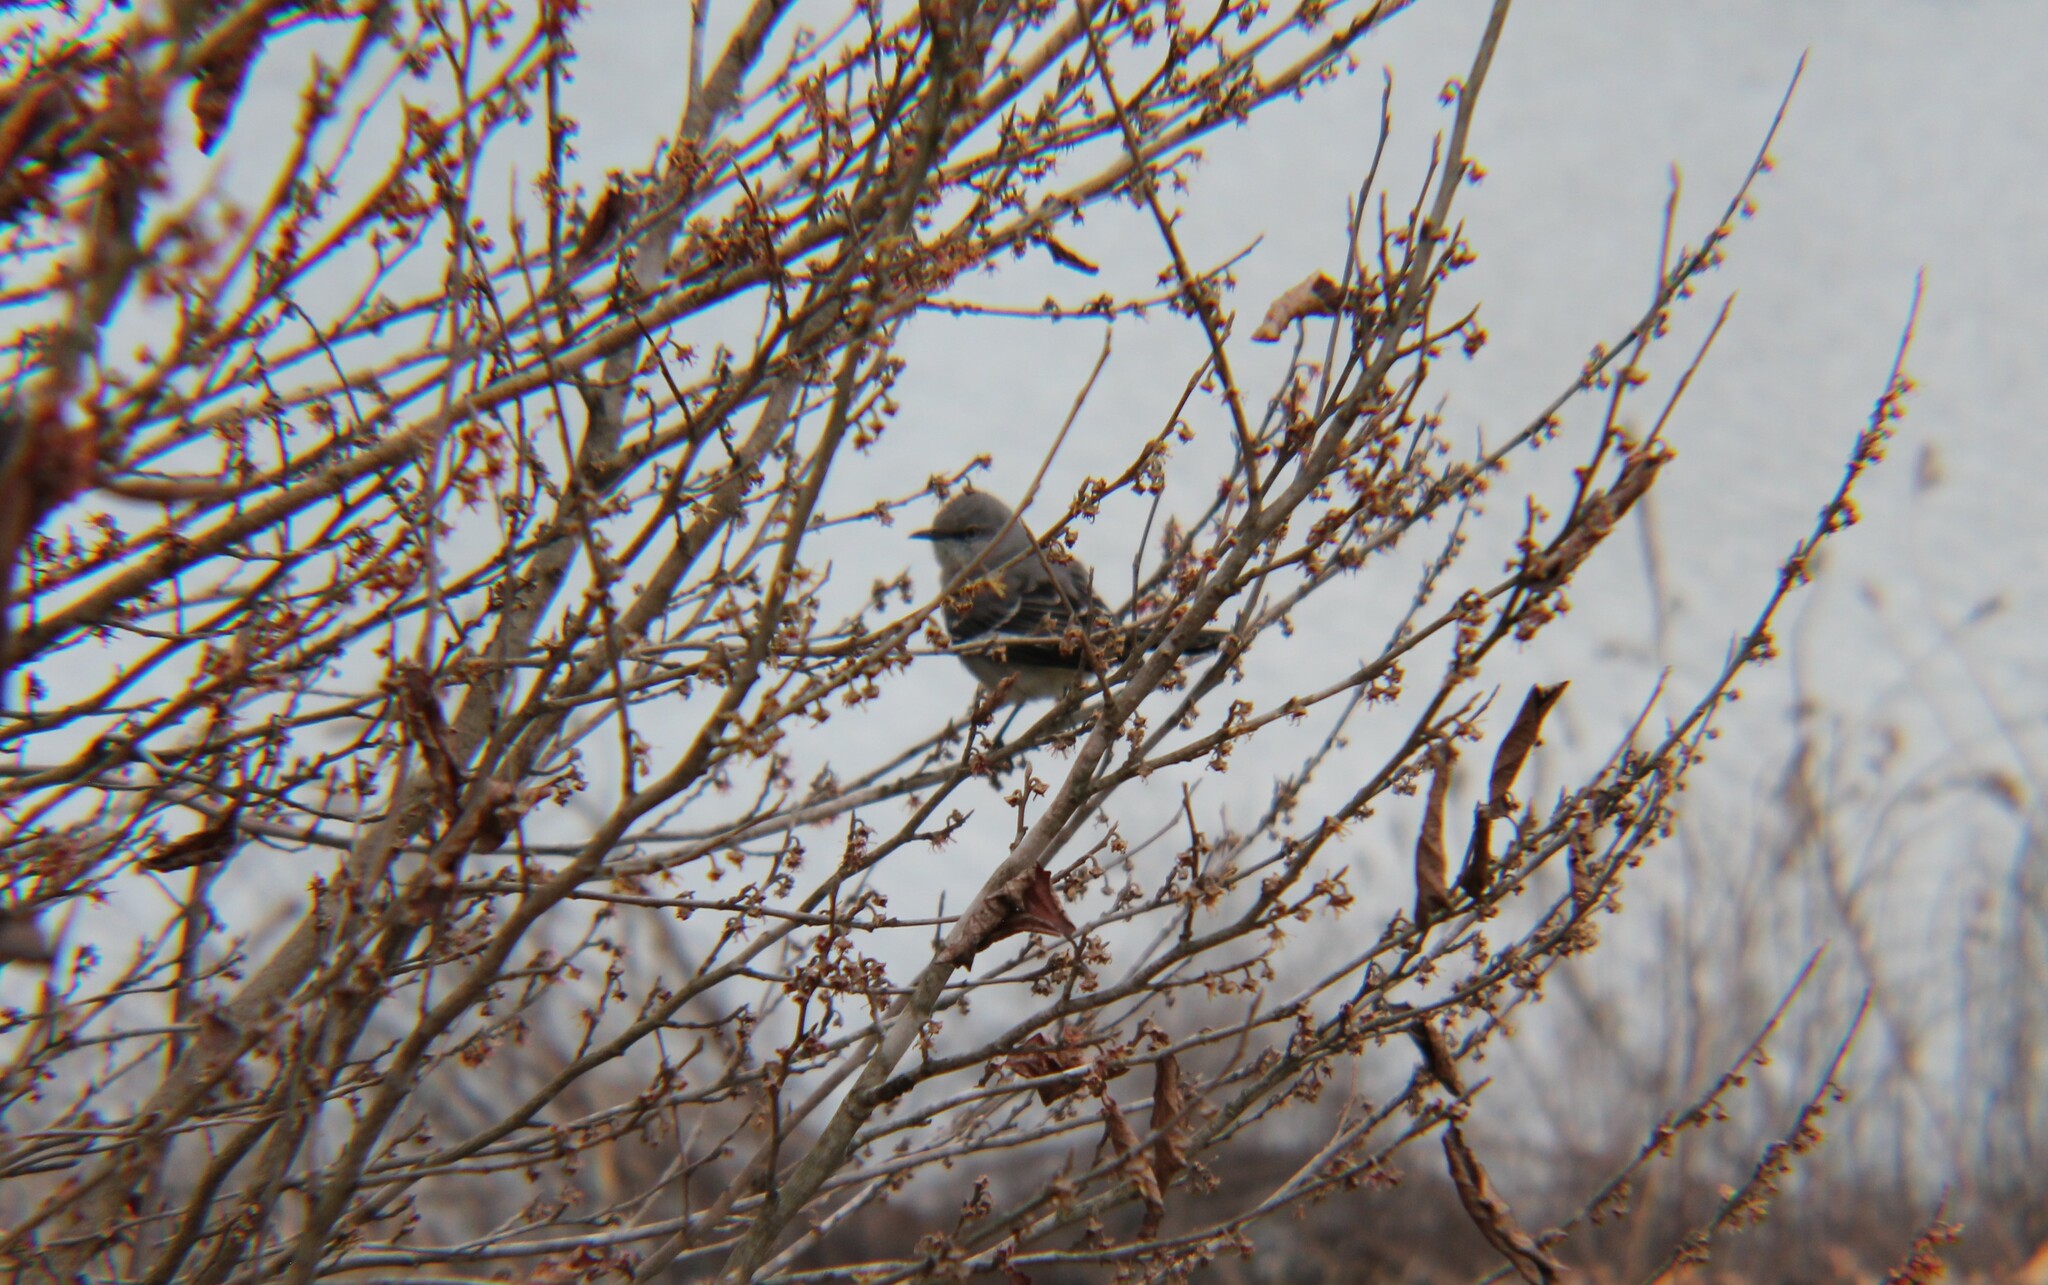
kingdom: Animalia
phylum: Chordata
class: Aves
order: Passeriformes
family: Mimidae
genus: Mimus
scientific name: Mimus polyglottos
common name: Northern mockingbird
